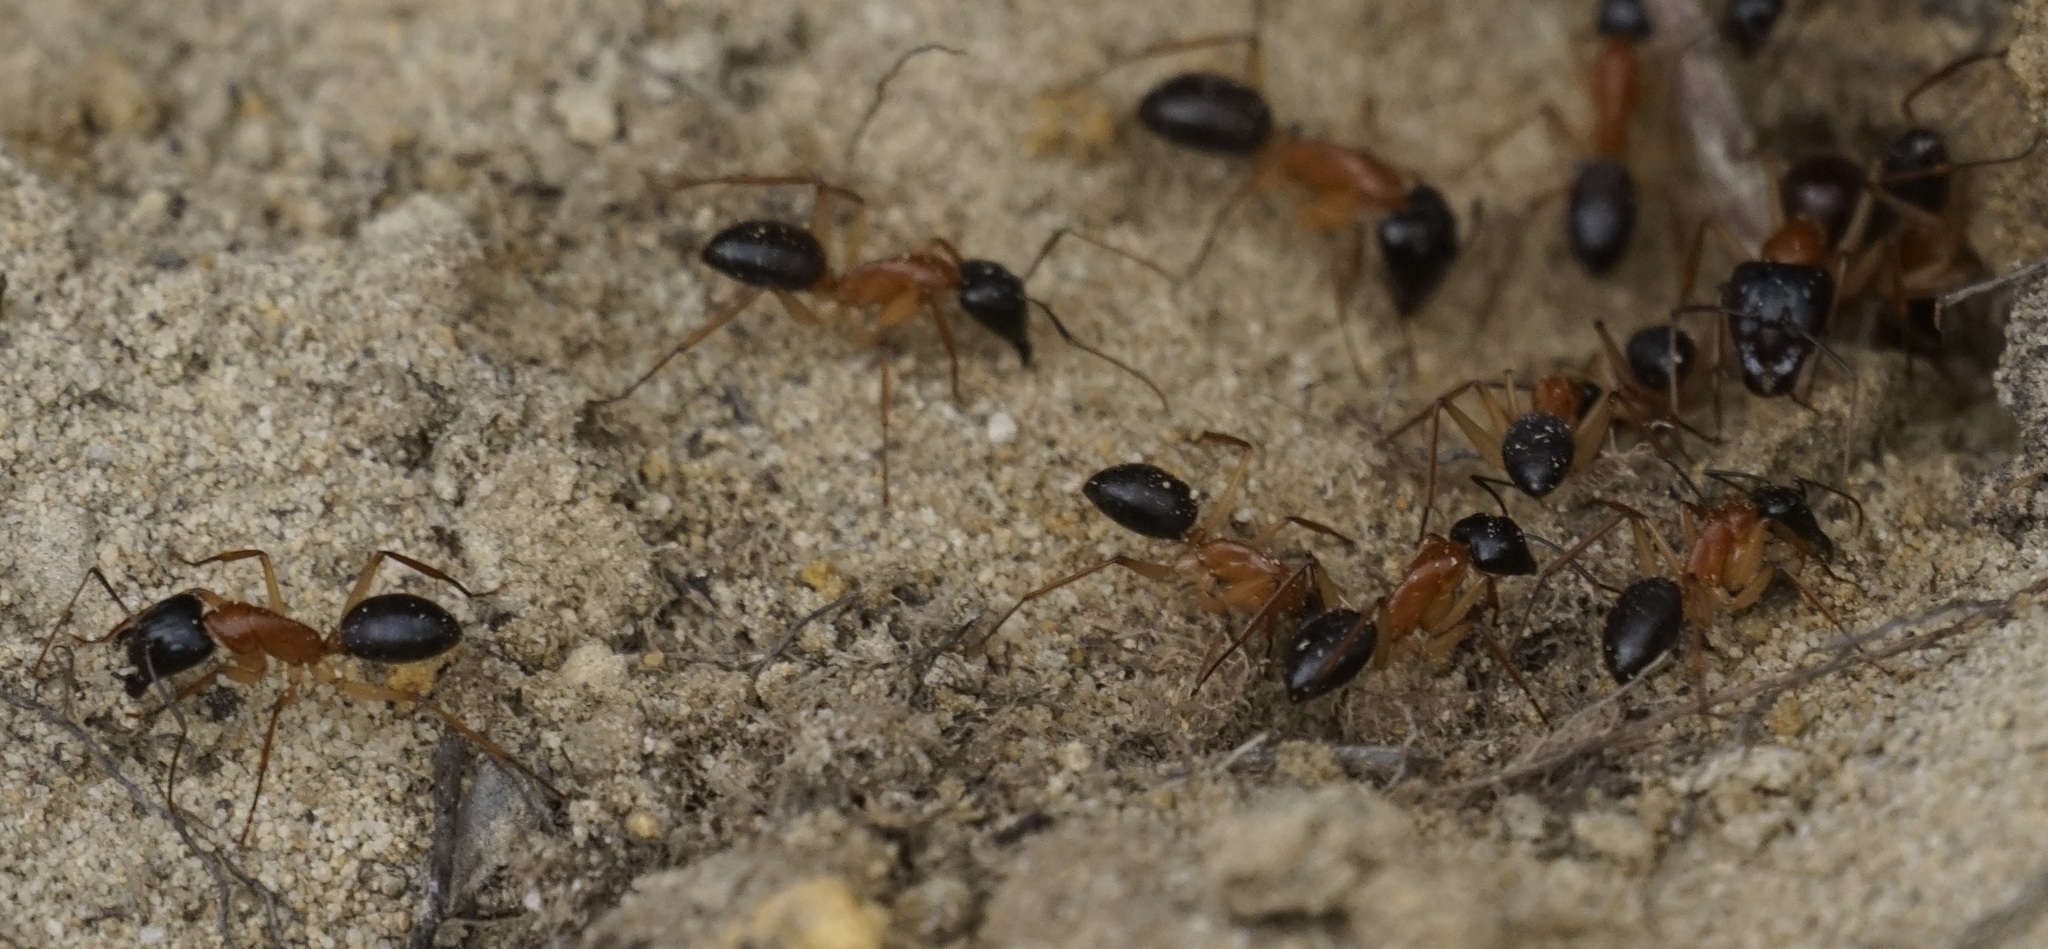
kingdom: Animalia
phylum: Arthropoda
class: Insecta
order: Hymenoptera
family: Formicidae
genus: Camponotus
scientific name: Camponotus nigriceps
